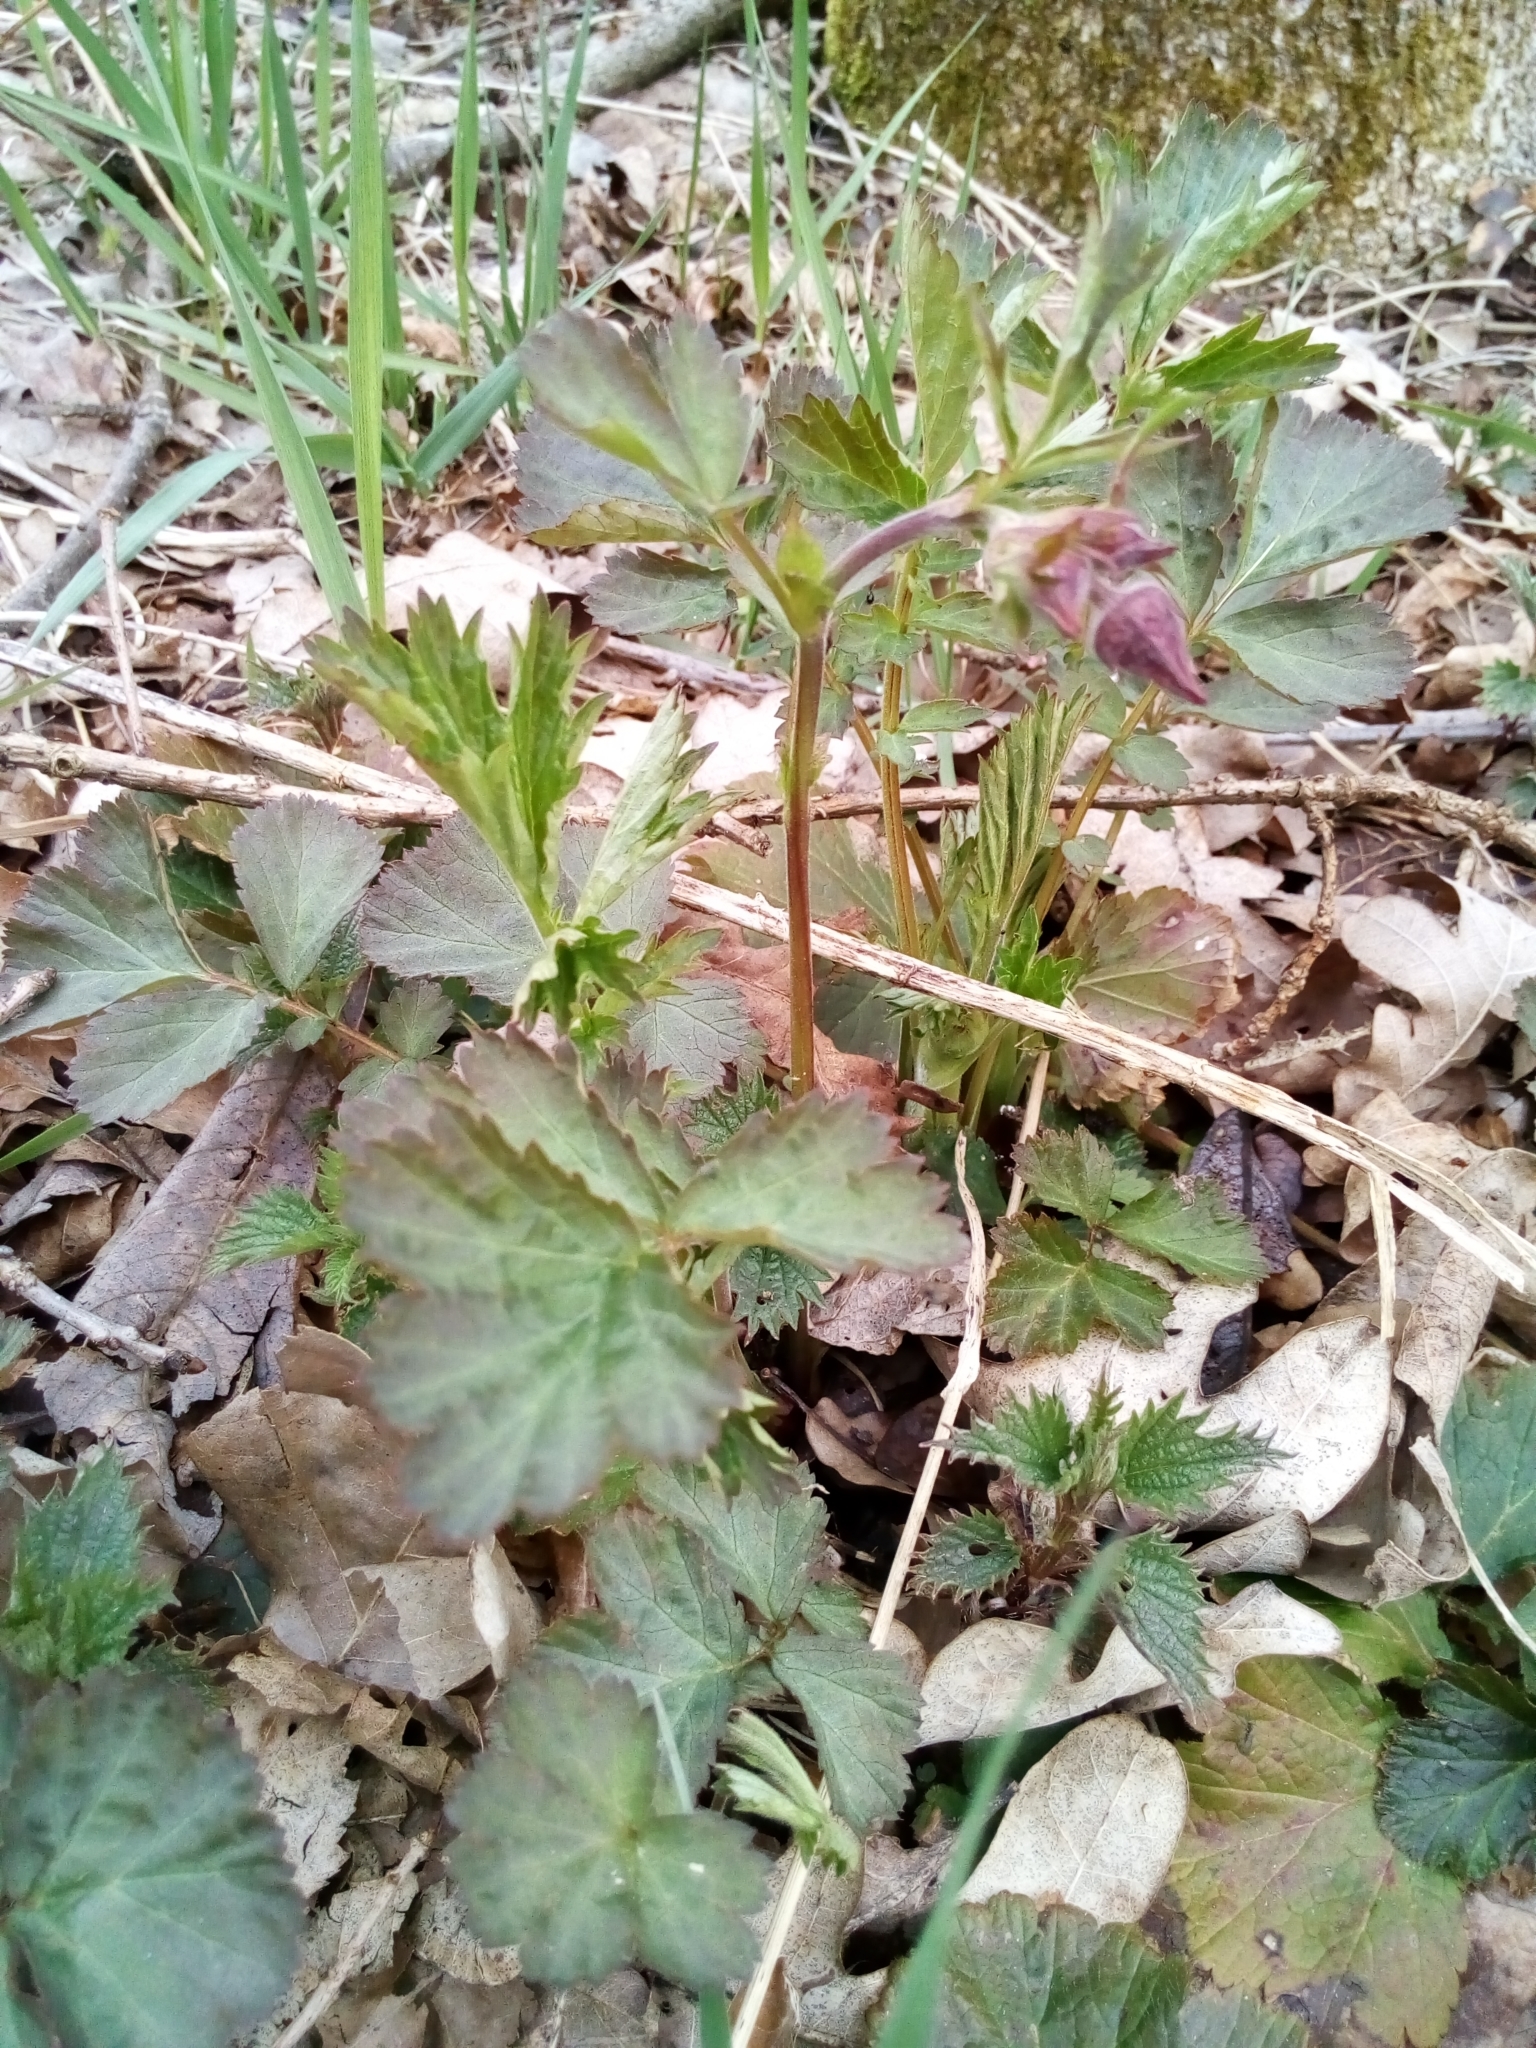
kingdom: Plantae
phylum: Tracheophyta
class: Magnoliopsida
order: Rosales
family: Rosaceae
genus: Geum
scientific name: Geum rivale
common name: Water avens
